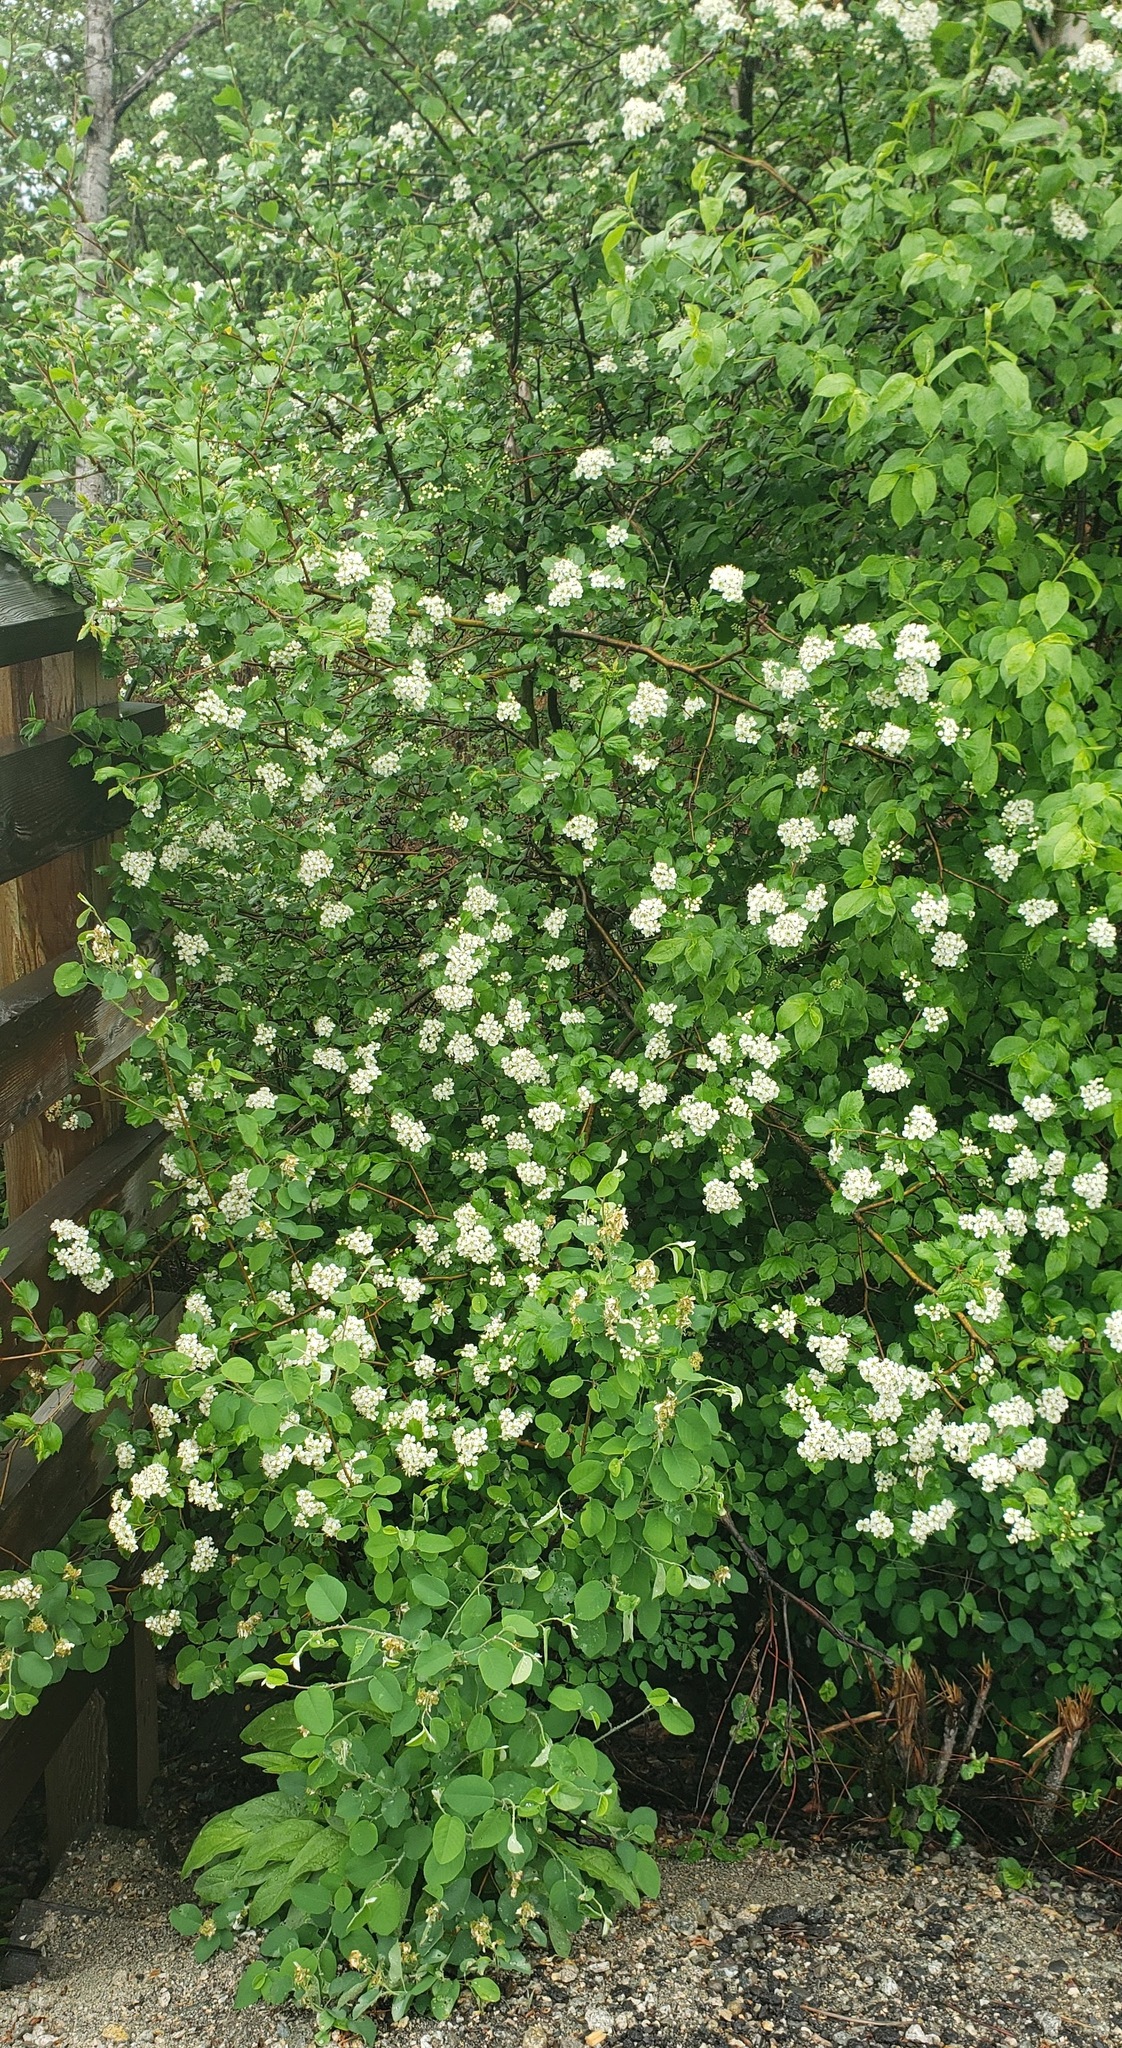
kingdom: Plantae
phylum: Tracheophyta
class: Magnoliopsida
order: Rosales
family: Rosaceae
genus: Crataegus
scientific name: Crataegus douglasii
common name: Black hawthorn
